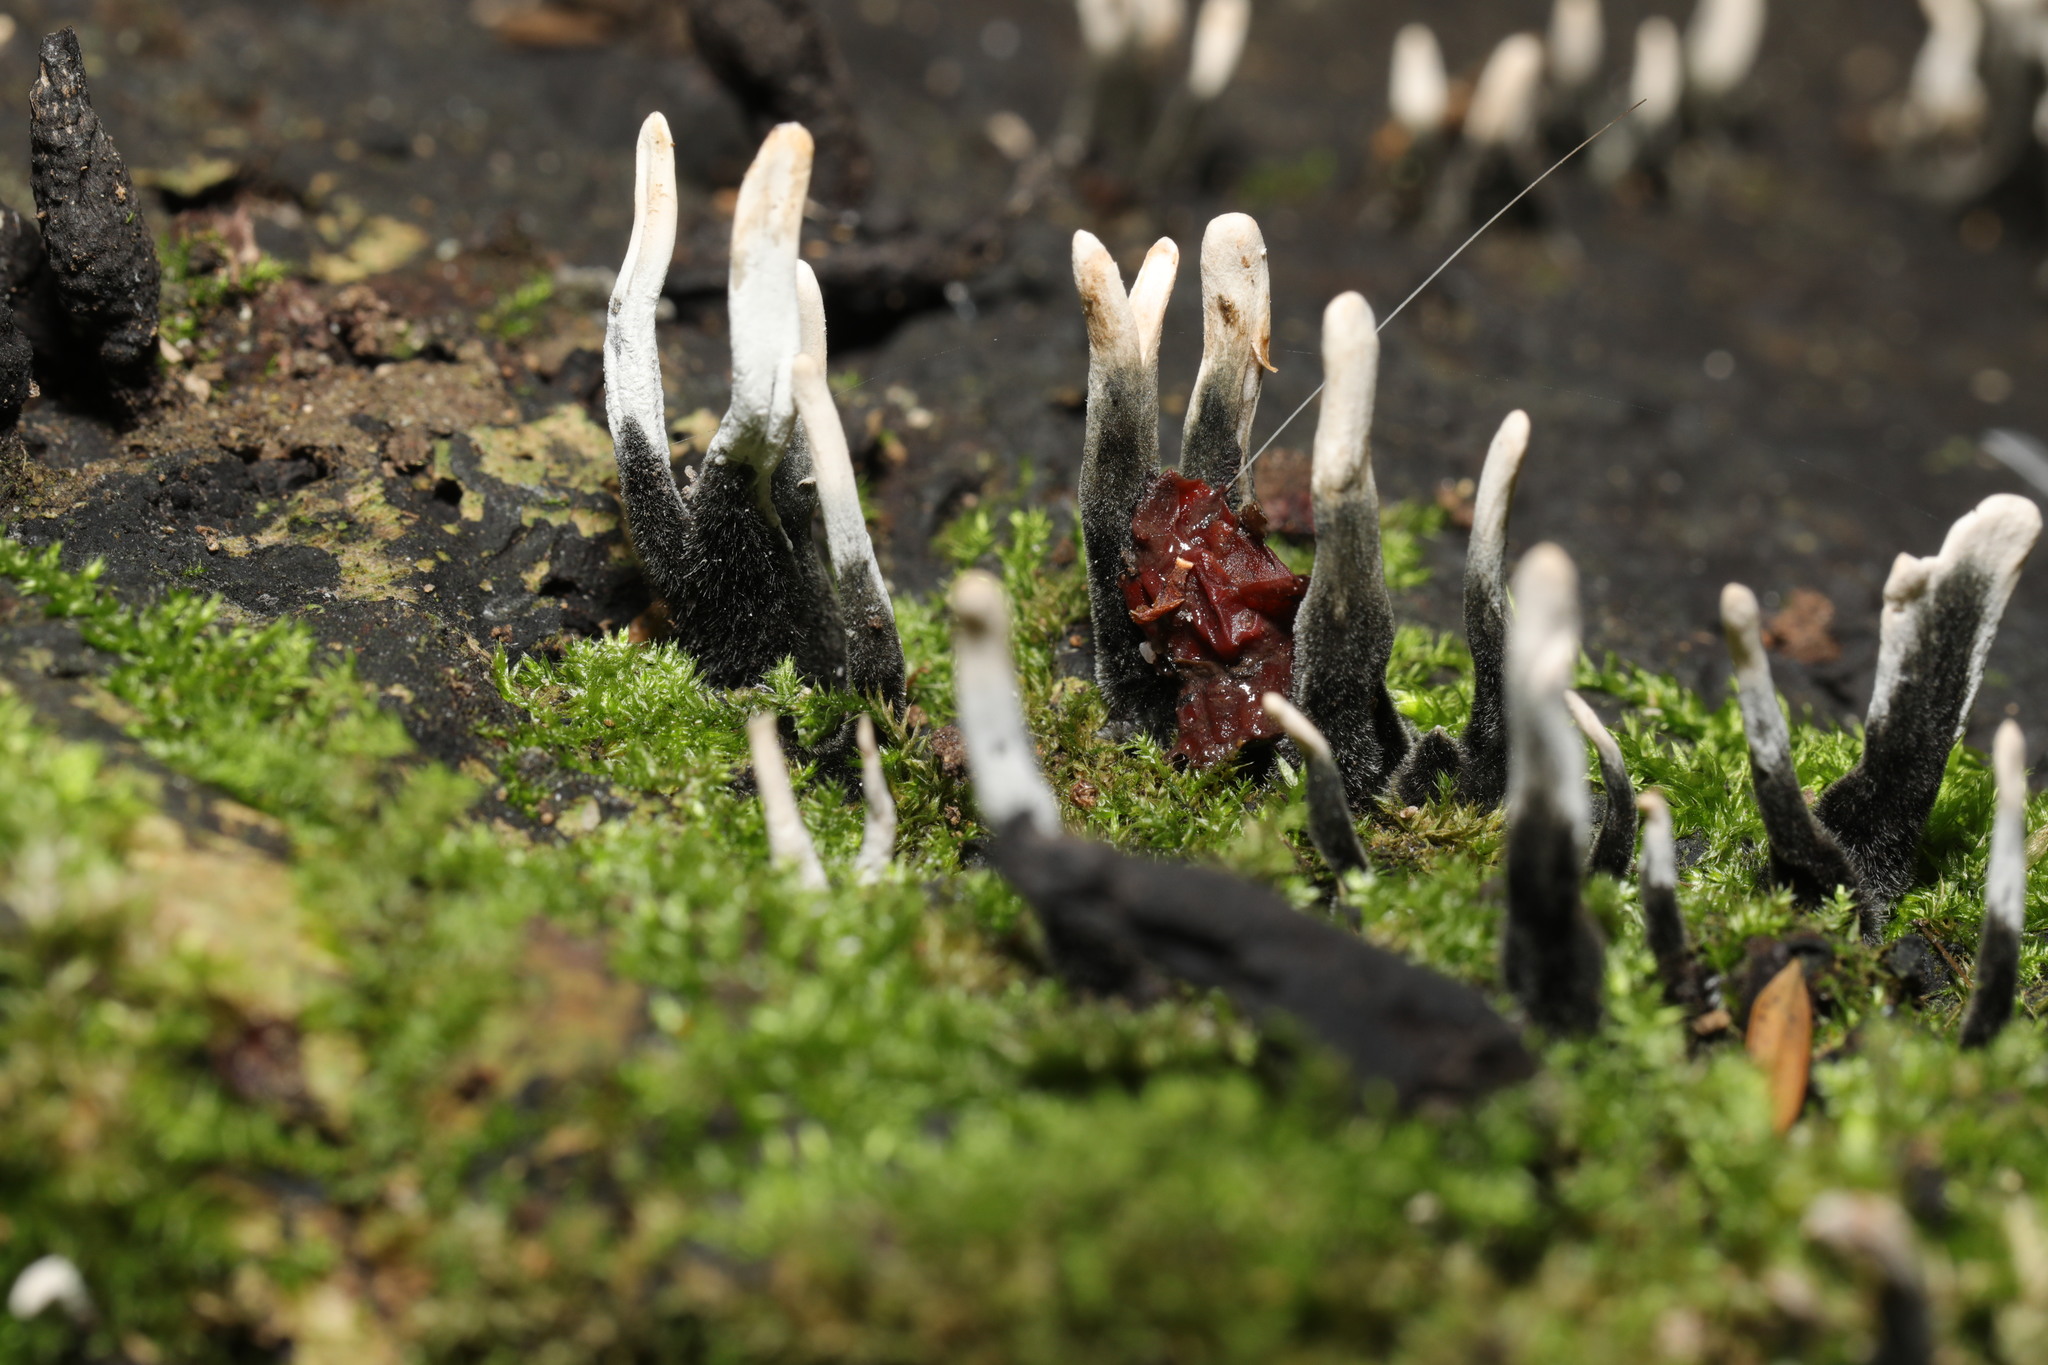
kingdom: Fungi
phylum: Ascomycota
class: Sordariomycetes
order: Xylariales
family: Xylariaceae
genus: Xylaria
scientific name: Xylaria hypoxylon
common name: Candle-snuff fungus
